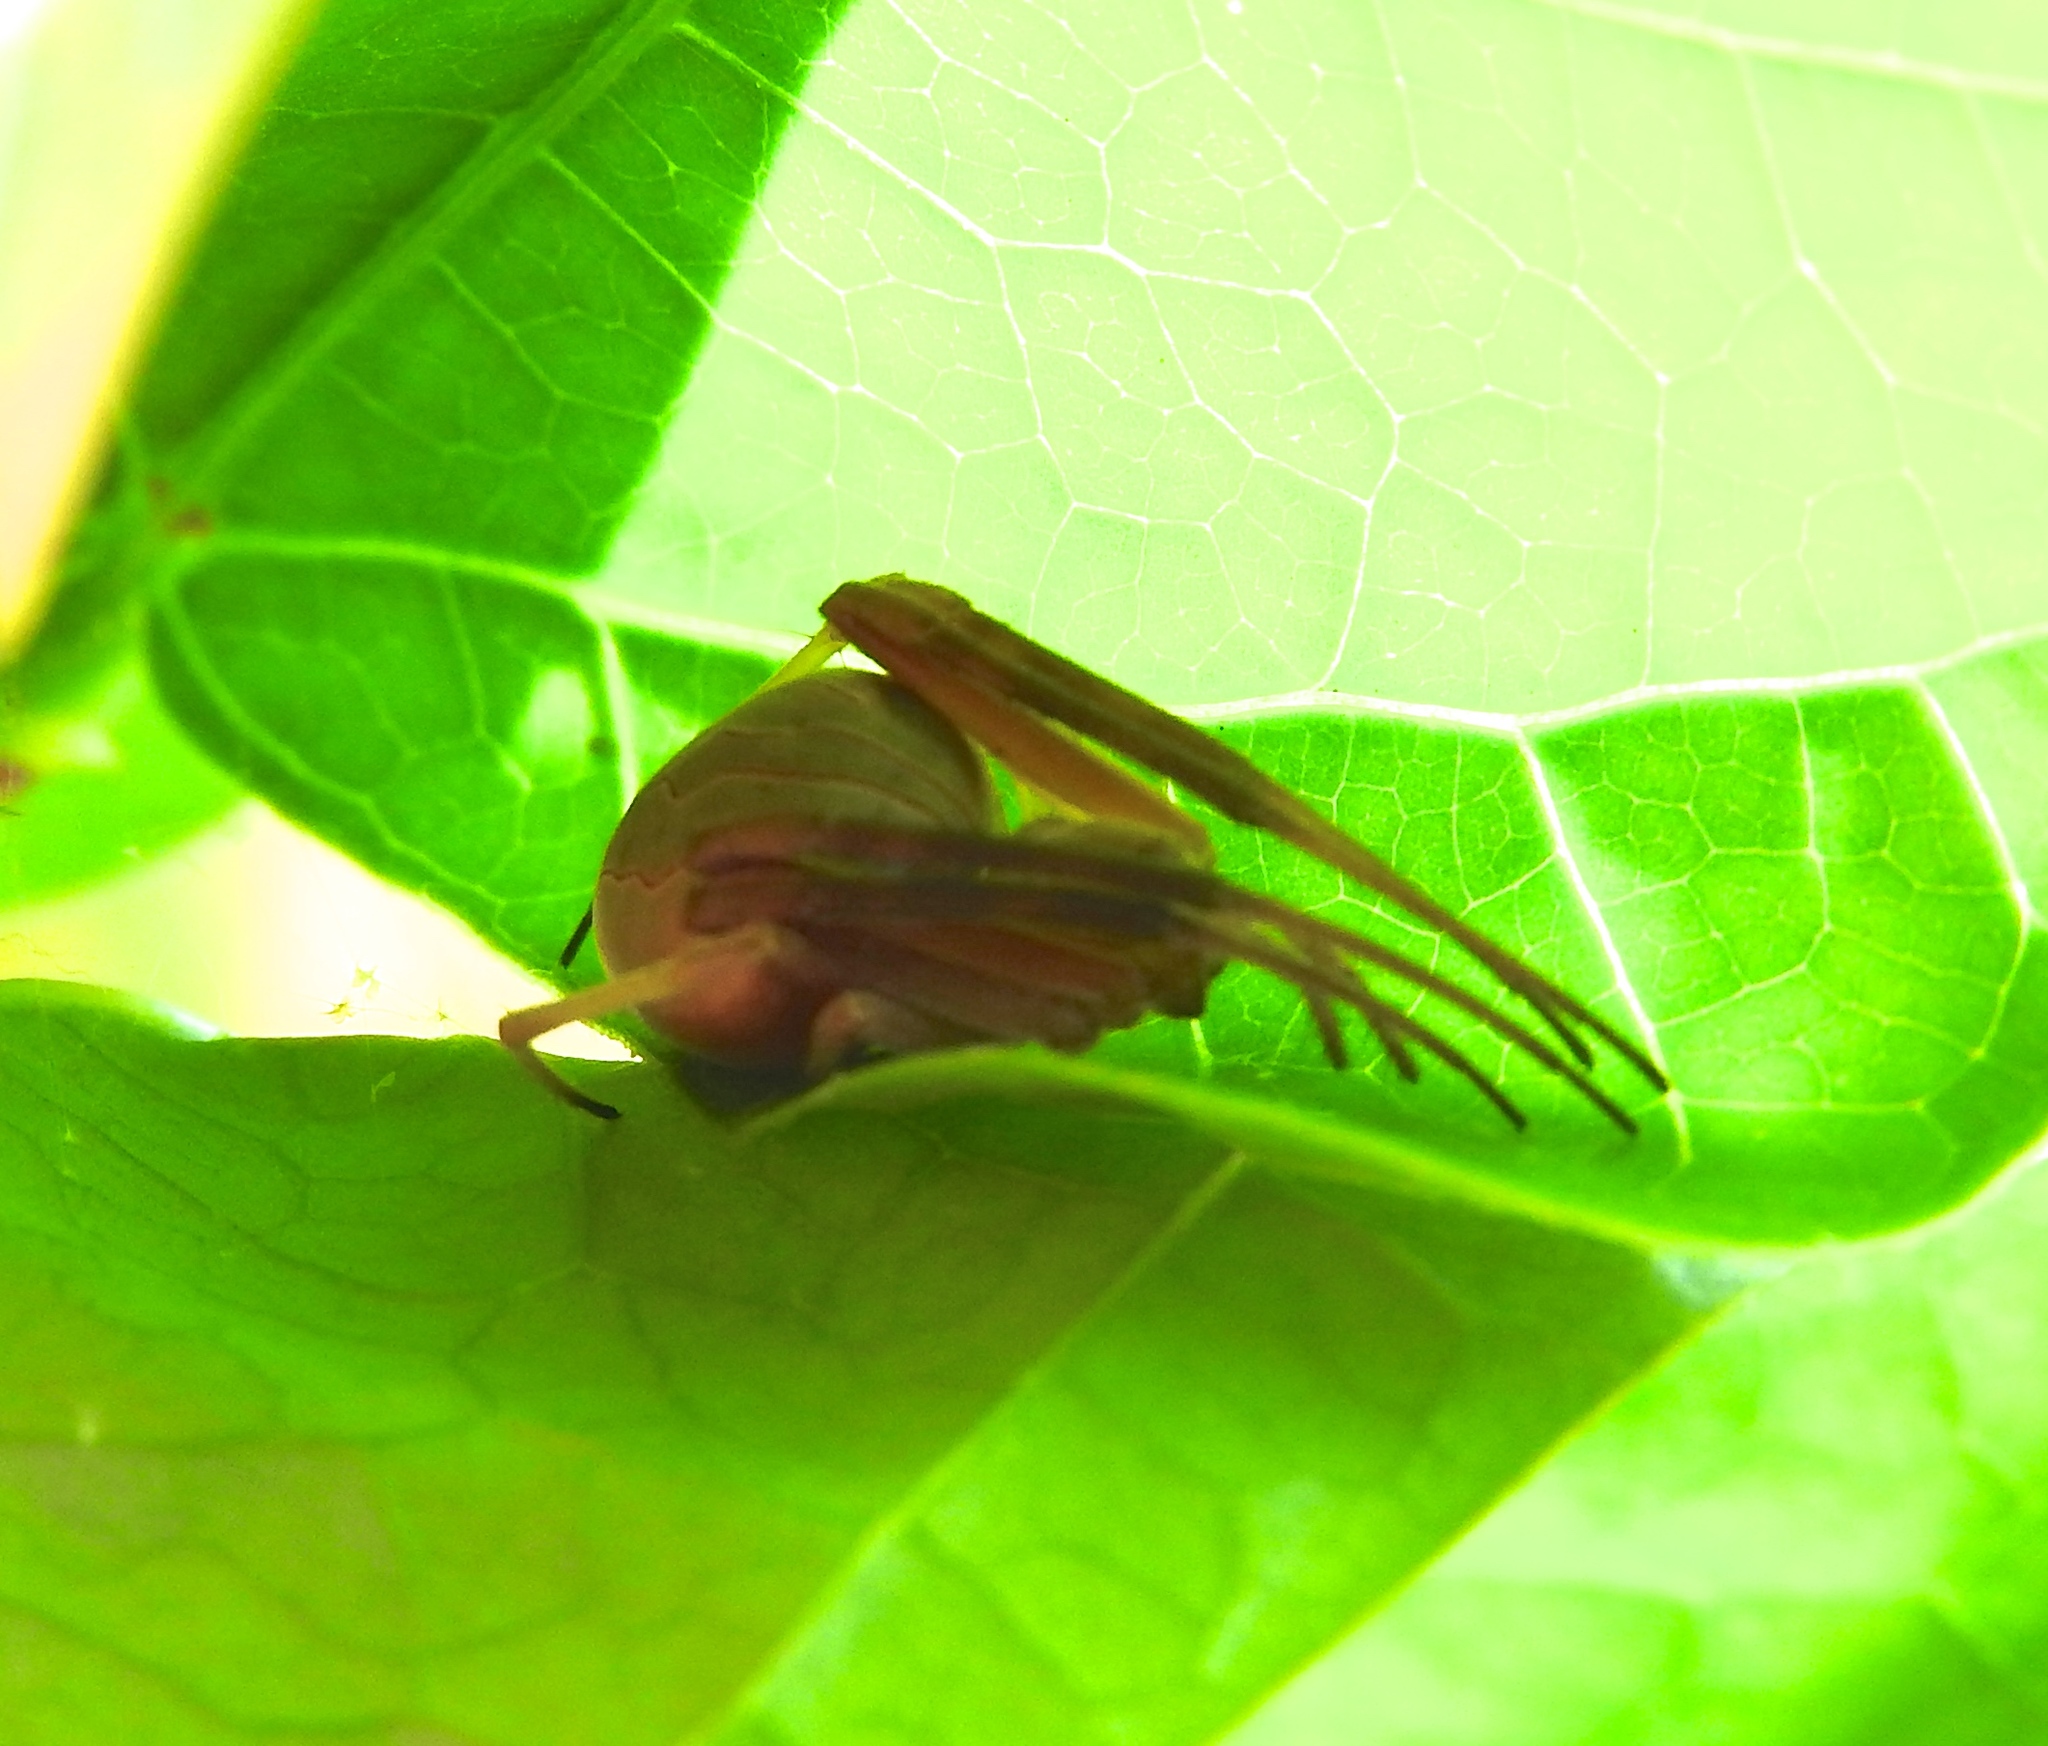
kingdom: Animalia
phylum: Arthropoda
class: Arachnida
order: Araneae
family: Araneidae
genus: Acacesia
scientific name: Acacesia
